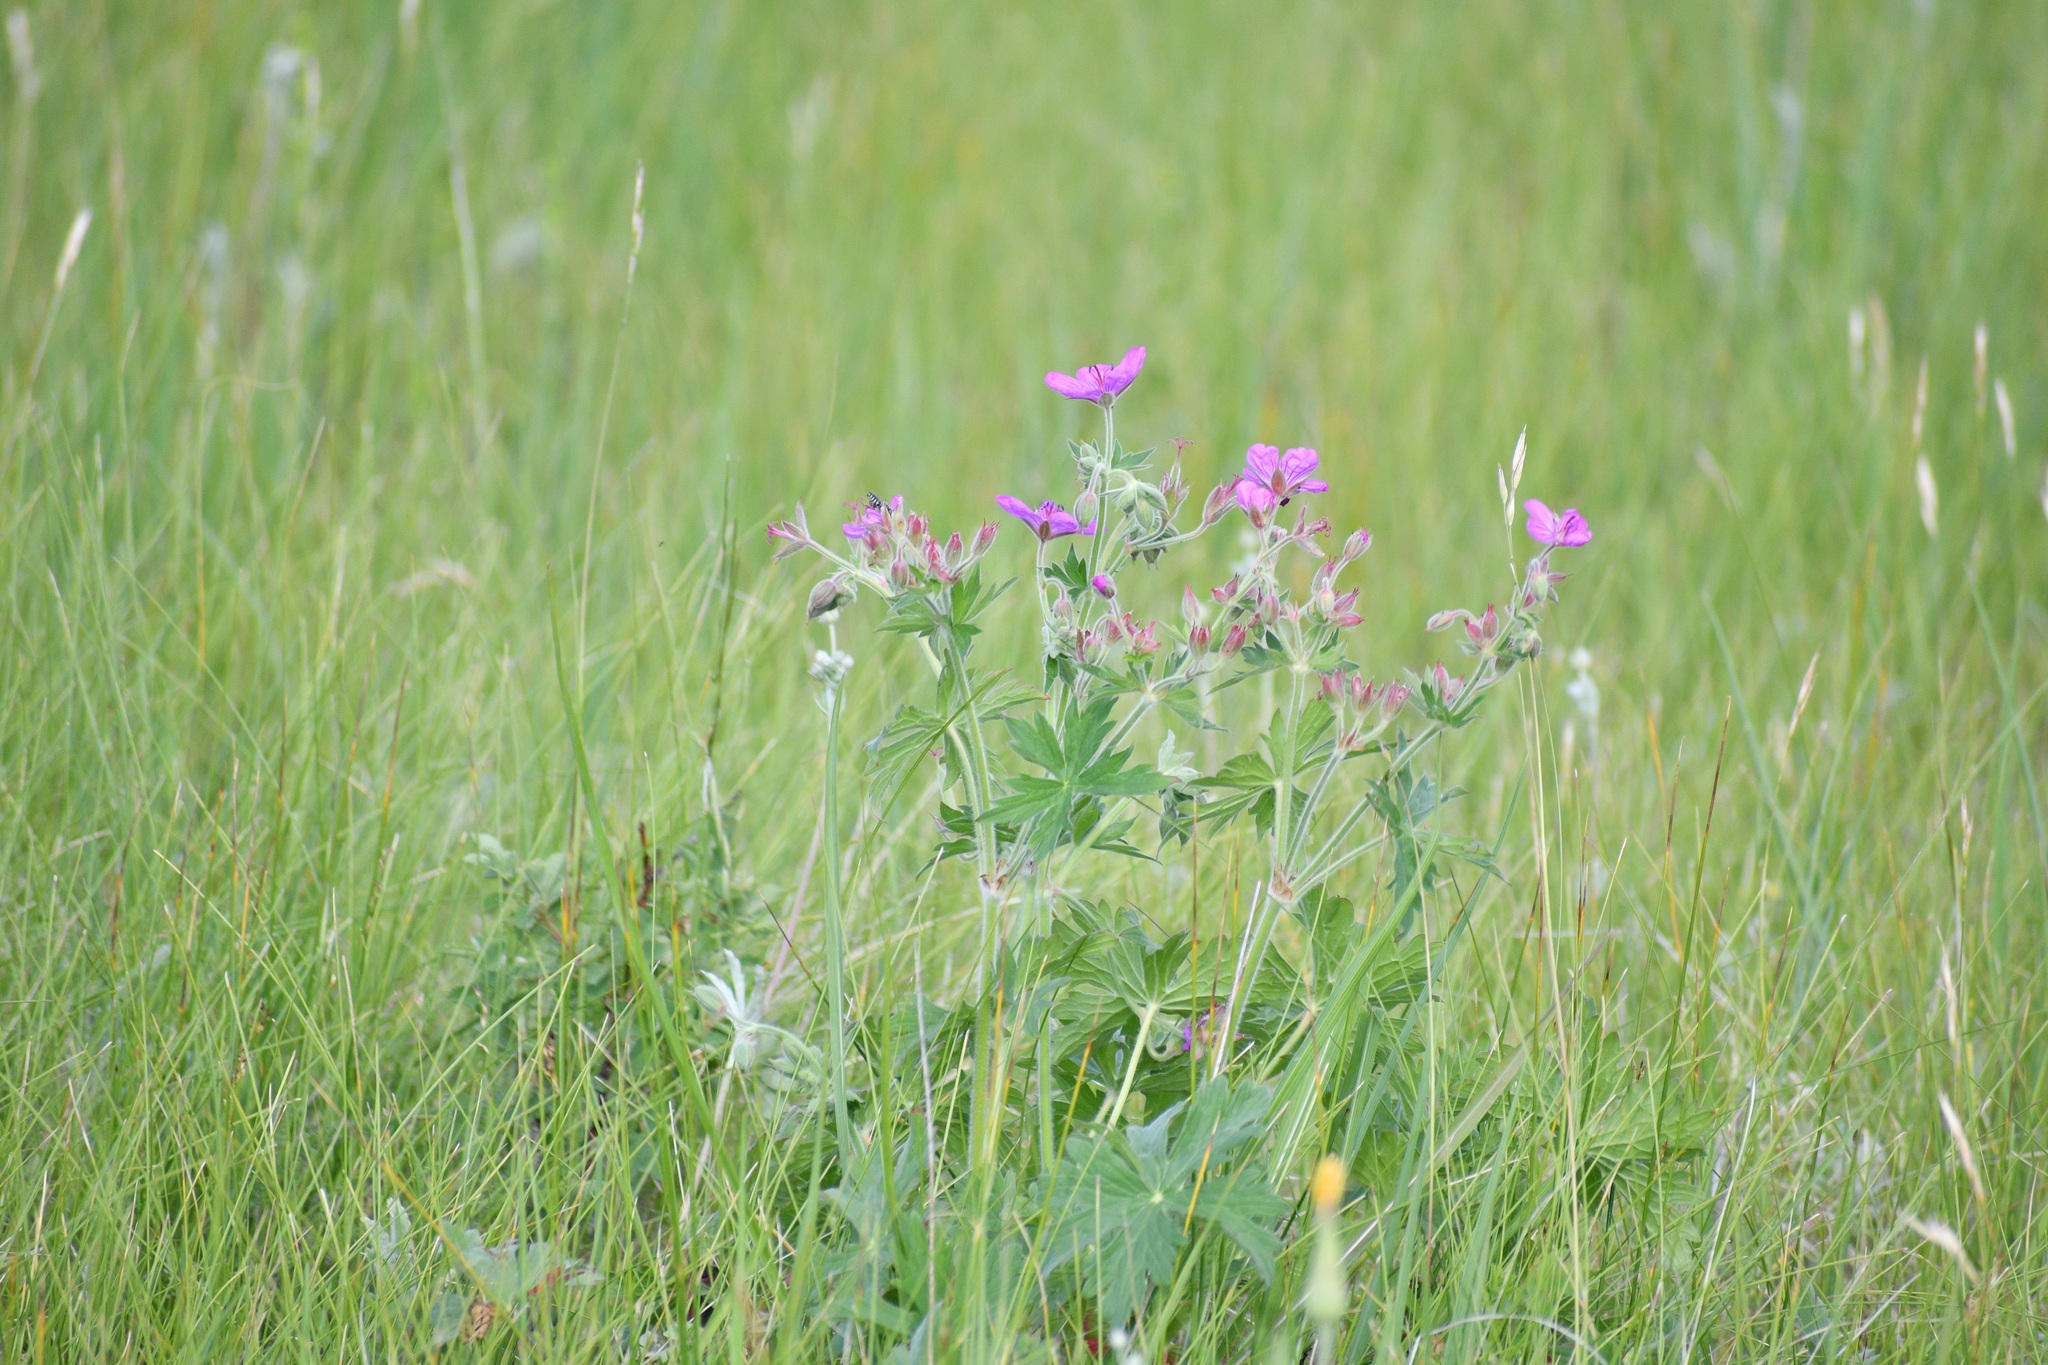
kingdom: Plantae
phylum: Tracheophyta
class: Magnoliopsida
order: Geraniales
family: Geraniaceae
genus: Geranium
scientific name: Geranium viscosissimum
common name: Purple geranium
